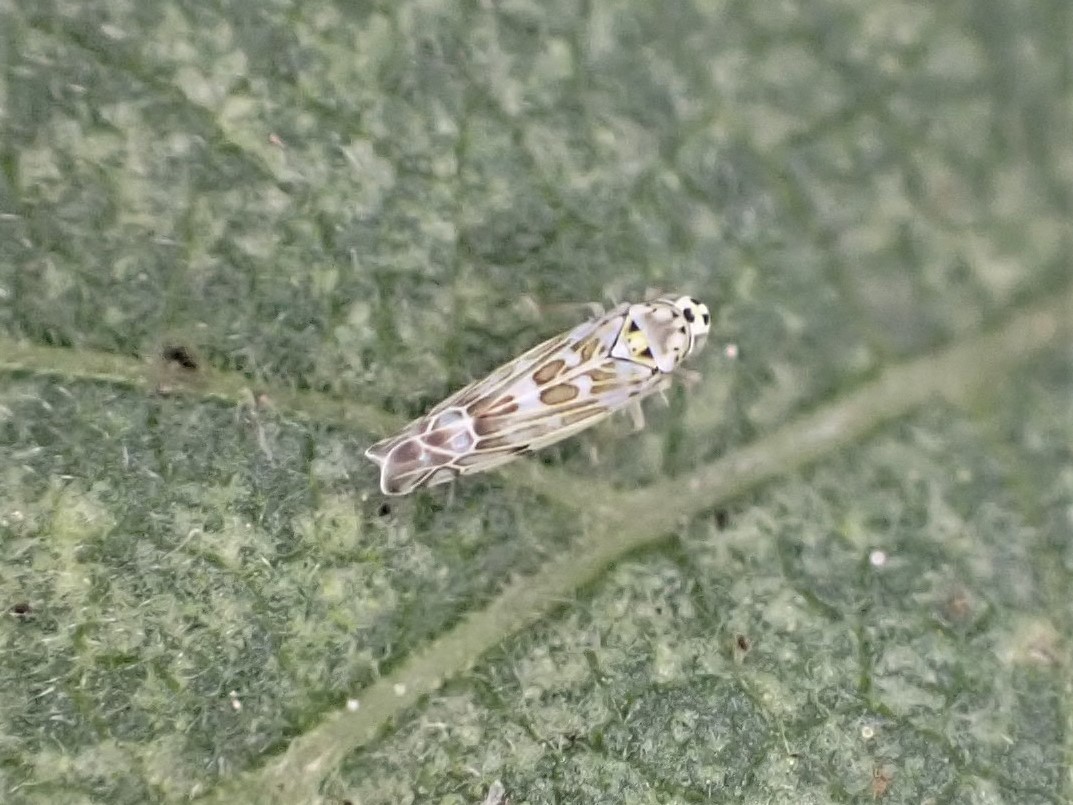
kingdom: Animalia
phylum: Arthropoda
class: Insecta
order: Hemiptera
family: Cicadellidae
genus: Eupteryx
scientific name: Eupteryx melissae
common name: Herb leafhopper
